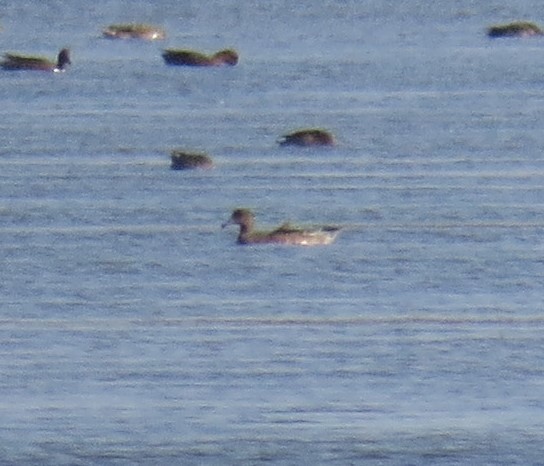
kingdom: Animalia
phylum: Chordata
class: Aves
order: Anseriformes
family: Anatidae
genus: Mareca
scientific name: Mareca penelope
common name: Eurasian wigeon
